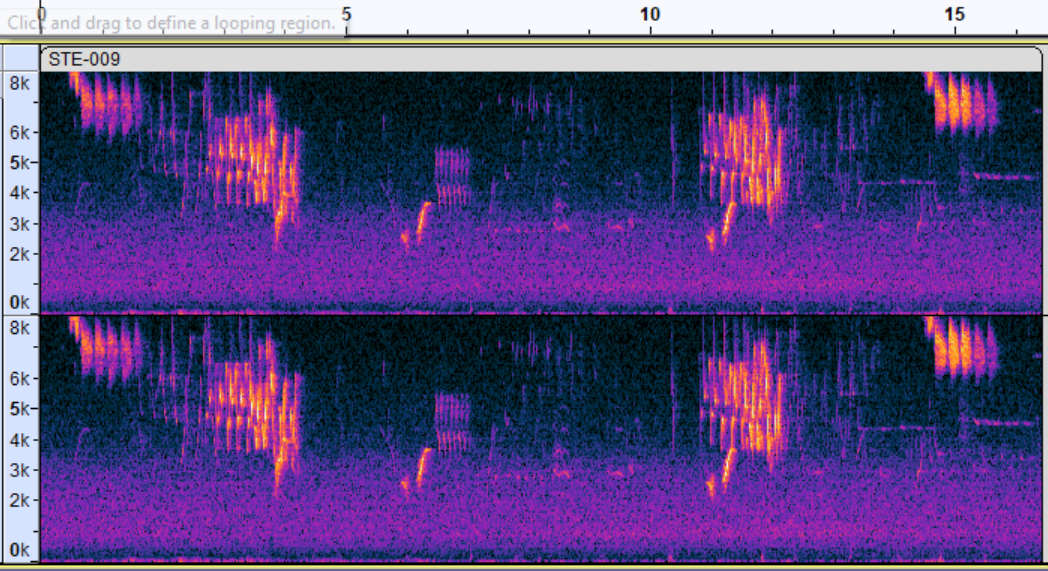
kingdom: Animalia
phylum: Chordata
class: Aves
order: Passeriformes
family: Parulidae
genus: Vermivora
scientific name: Vermivora chrysoptera
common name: Golden-winged warbler
